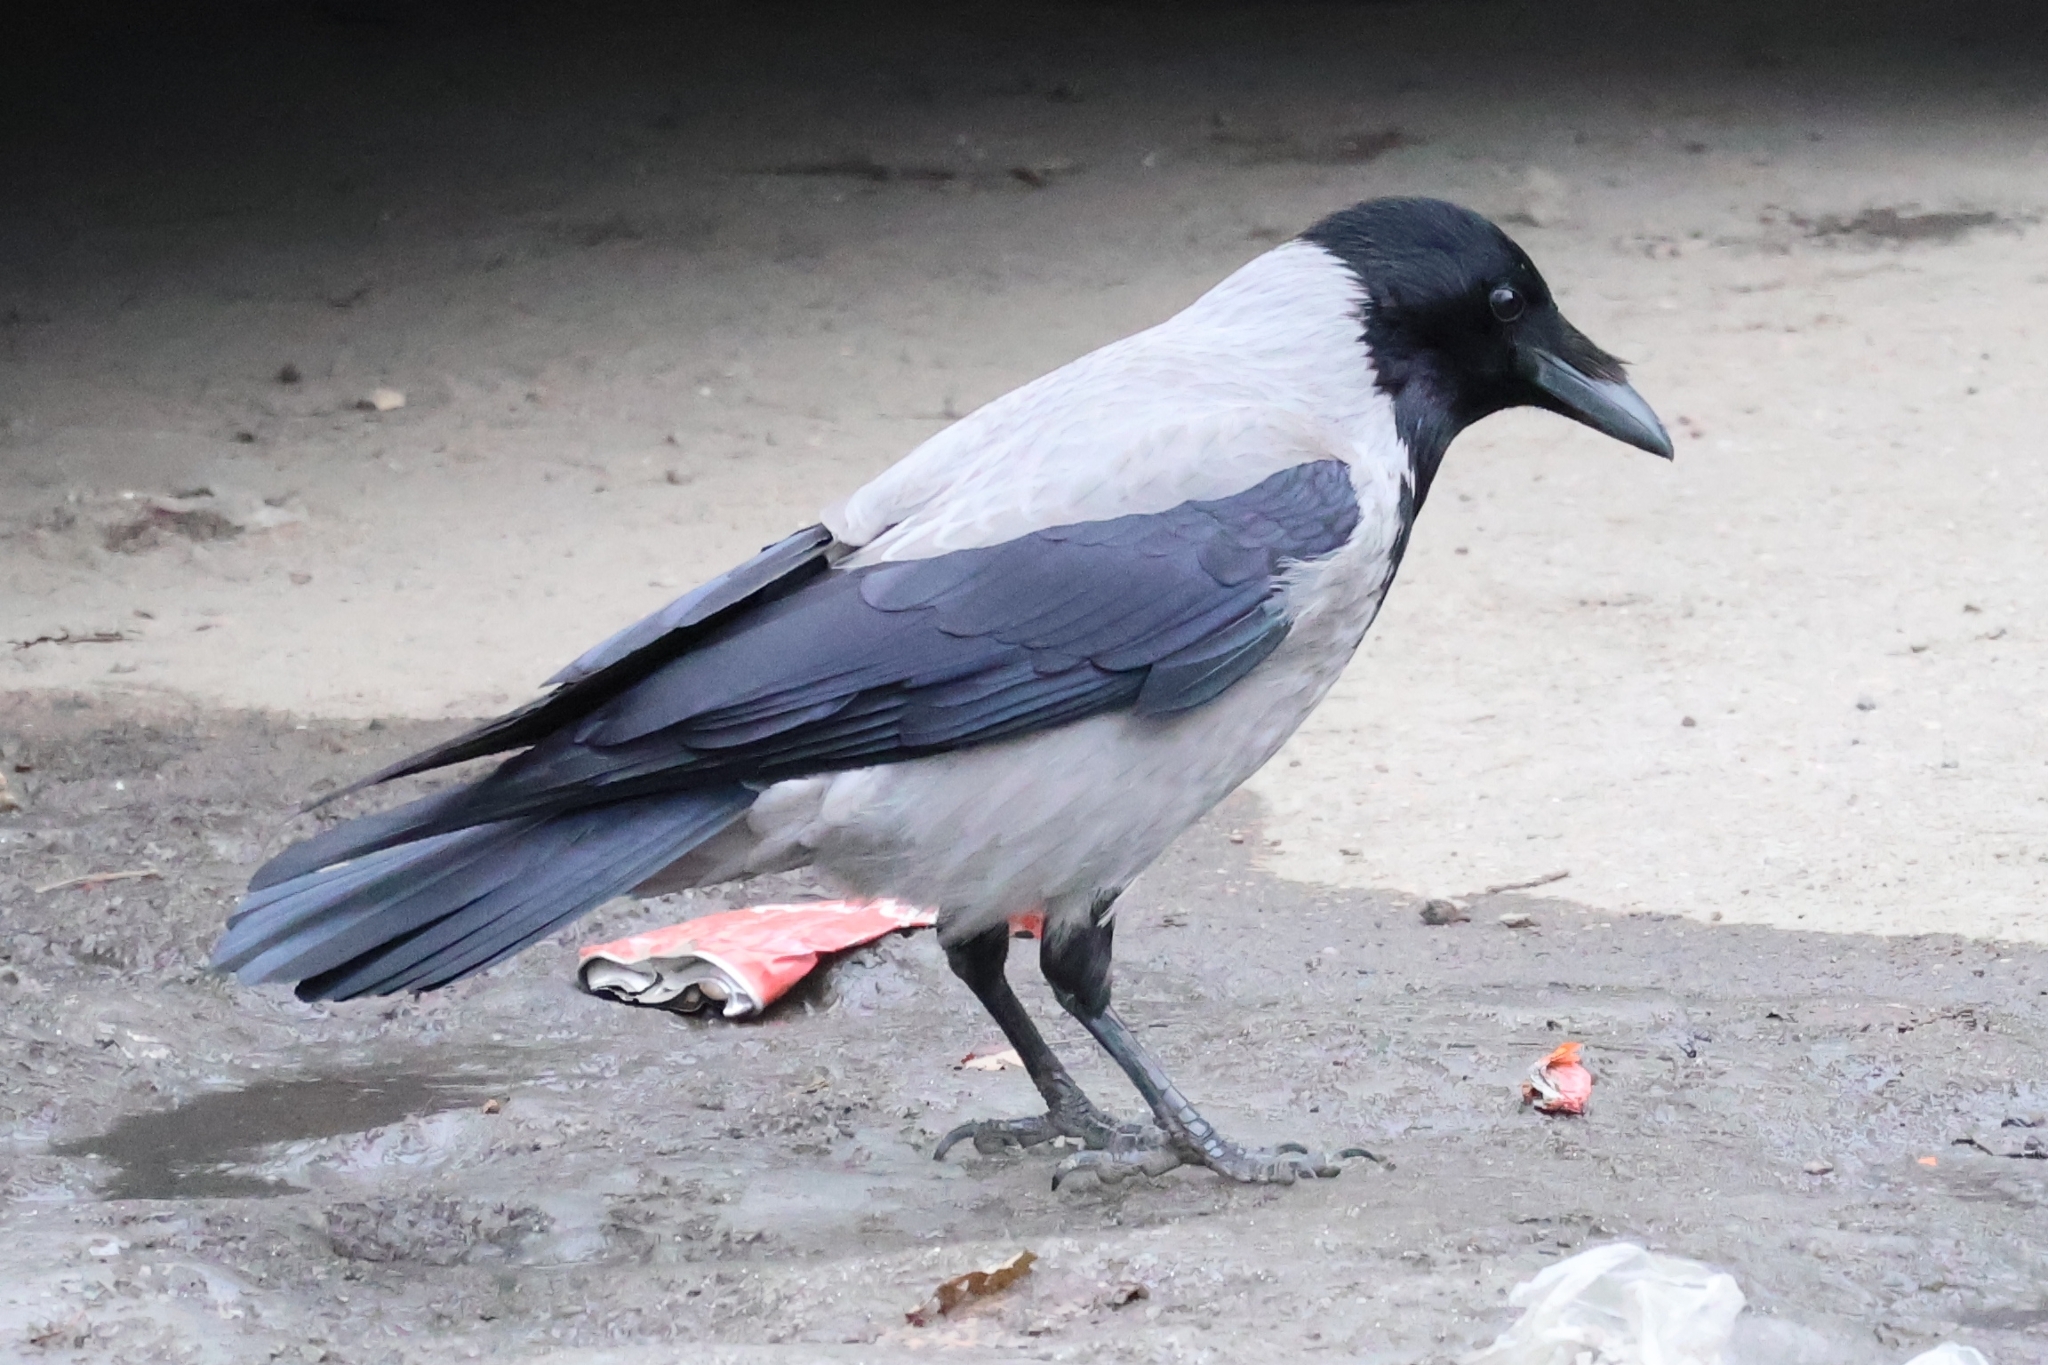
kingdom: Animalia
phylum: Chordata
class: Aves
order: Passeriformes
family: Corvidae
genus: Corvus
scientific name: Corvus cornix
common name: Hooded crow
